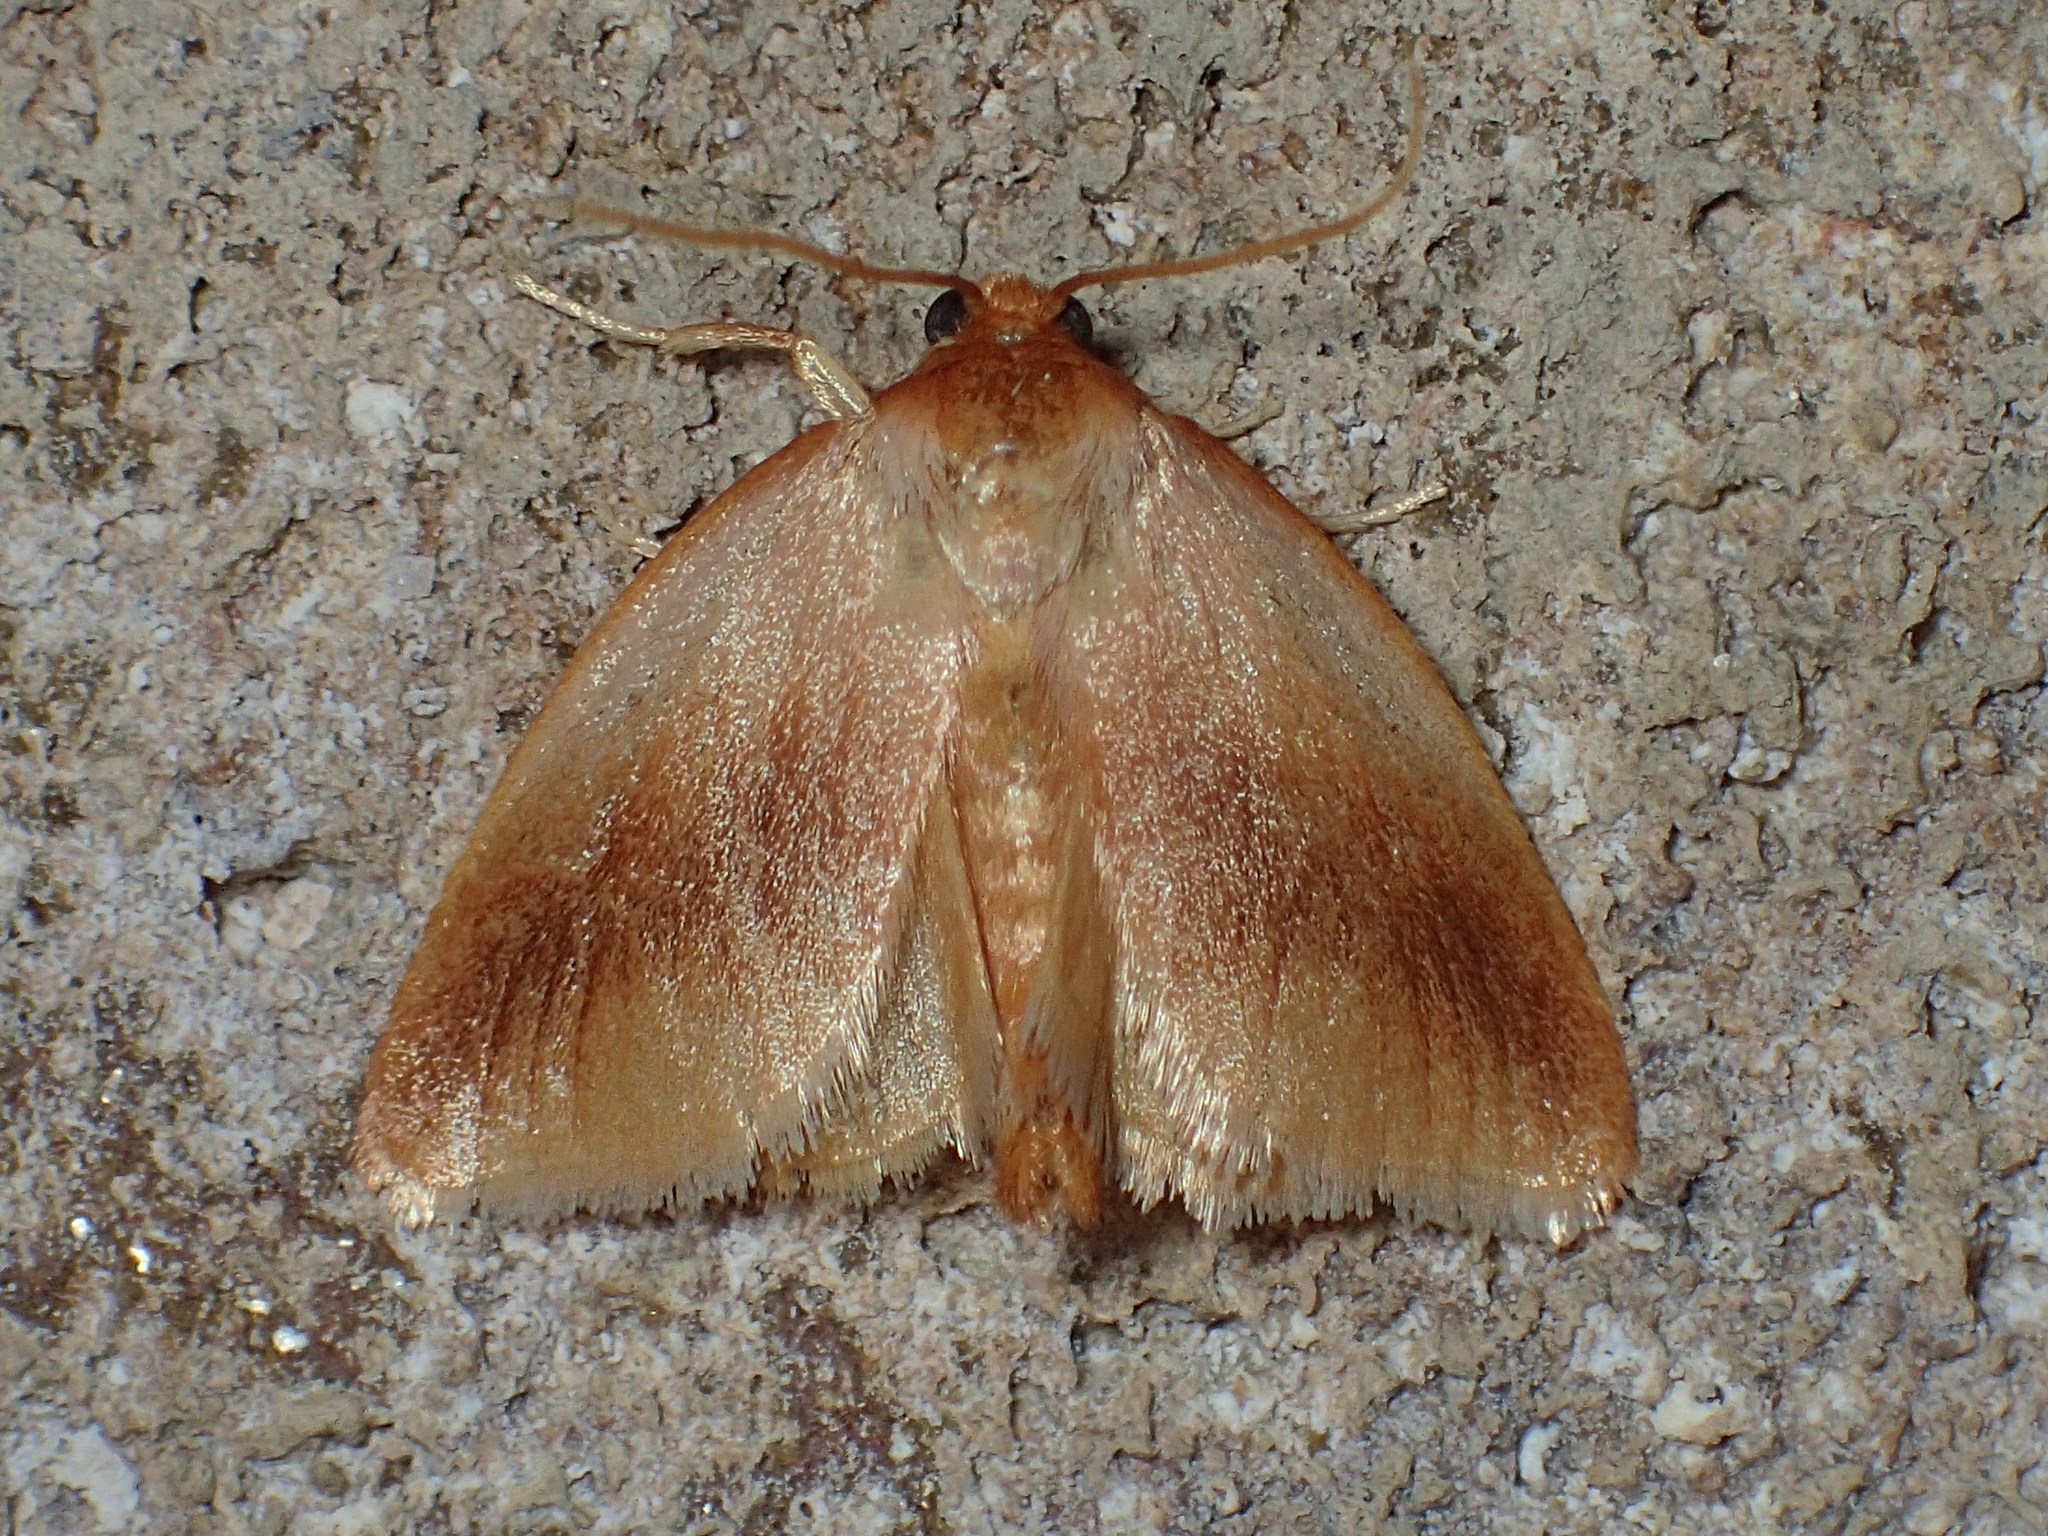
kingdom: Animalia
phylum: Arthropoda
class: Insecta
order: Lepidoptera
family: Limacodidae
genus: Tortricidia
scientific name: Tortricidia testacea
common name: Early button slug moth
